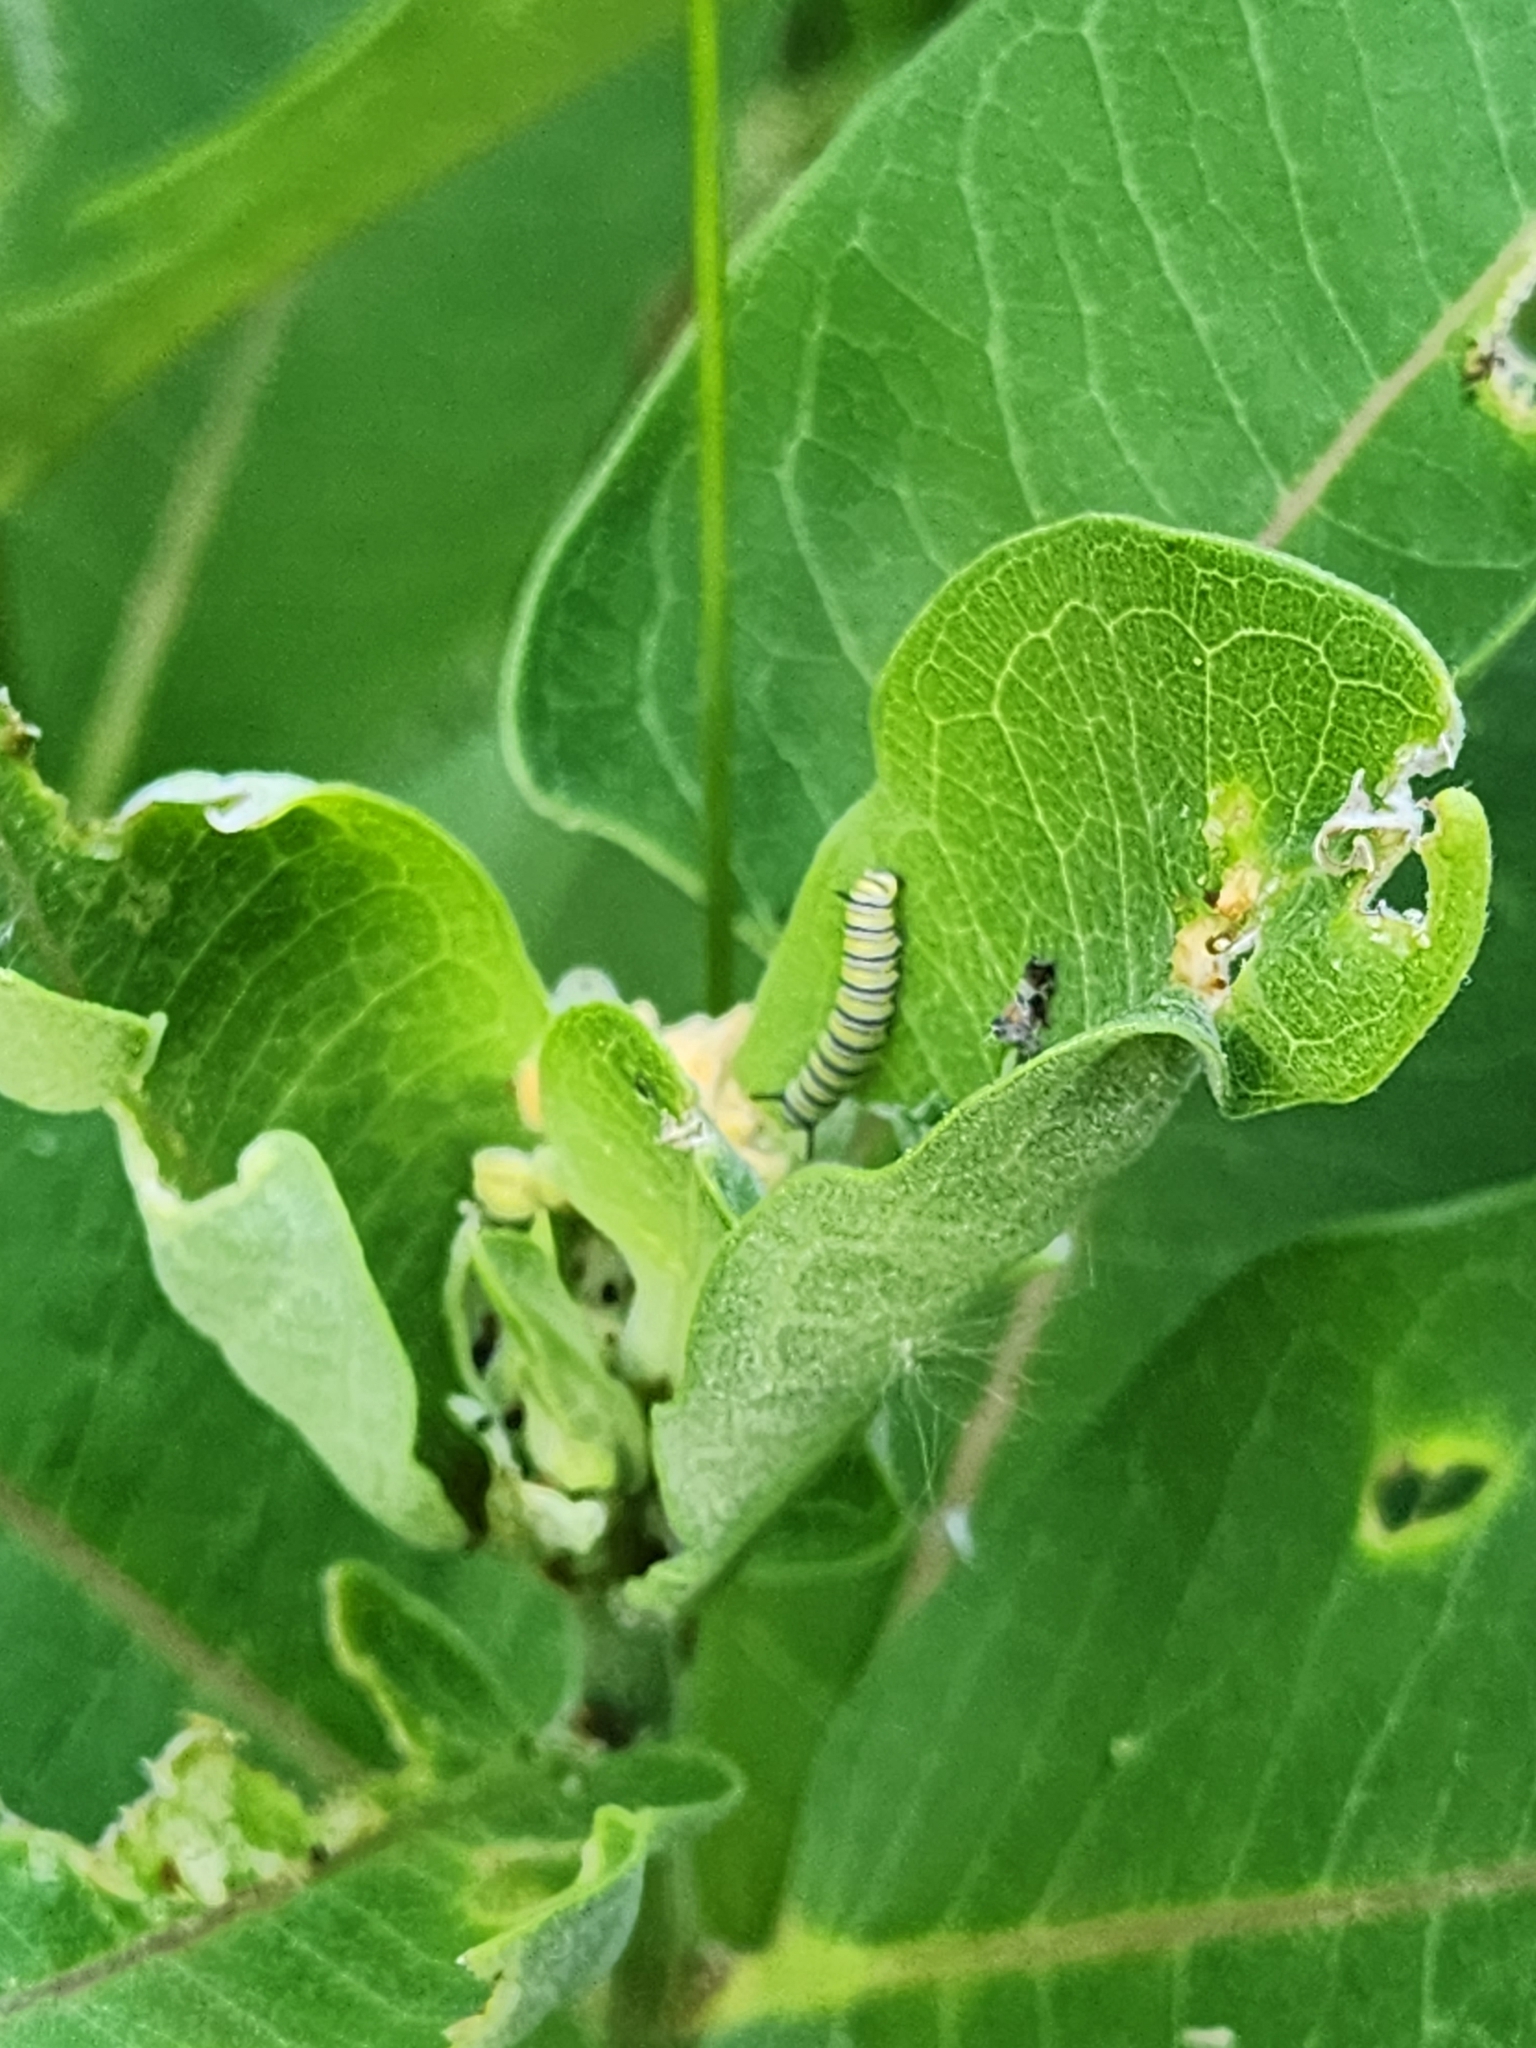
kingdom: Animalia
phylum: Arthropoda
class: Insecta
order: Lepidoptera
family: Nymphalidae
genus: Danaus
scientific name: Danaus plexippus
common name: Monarch
